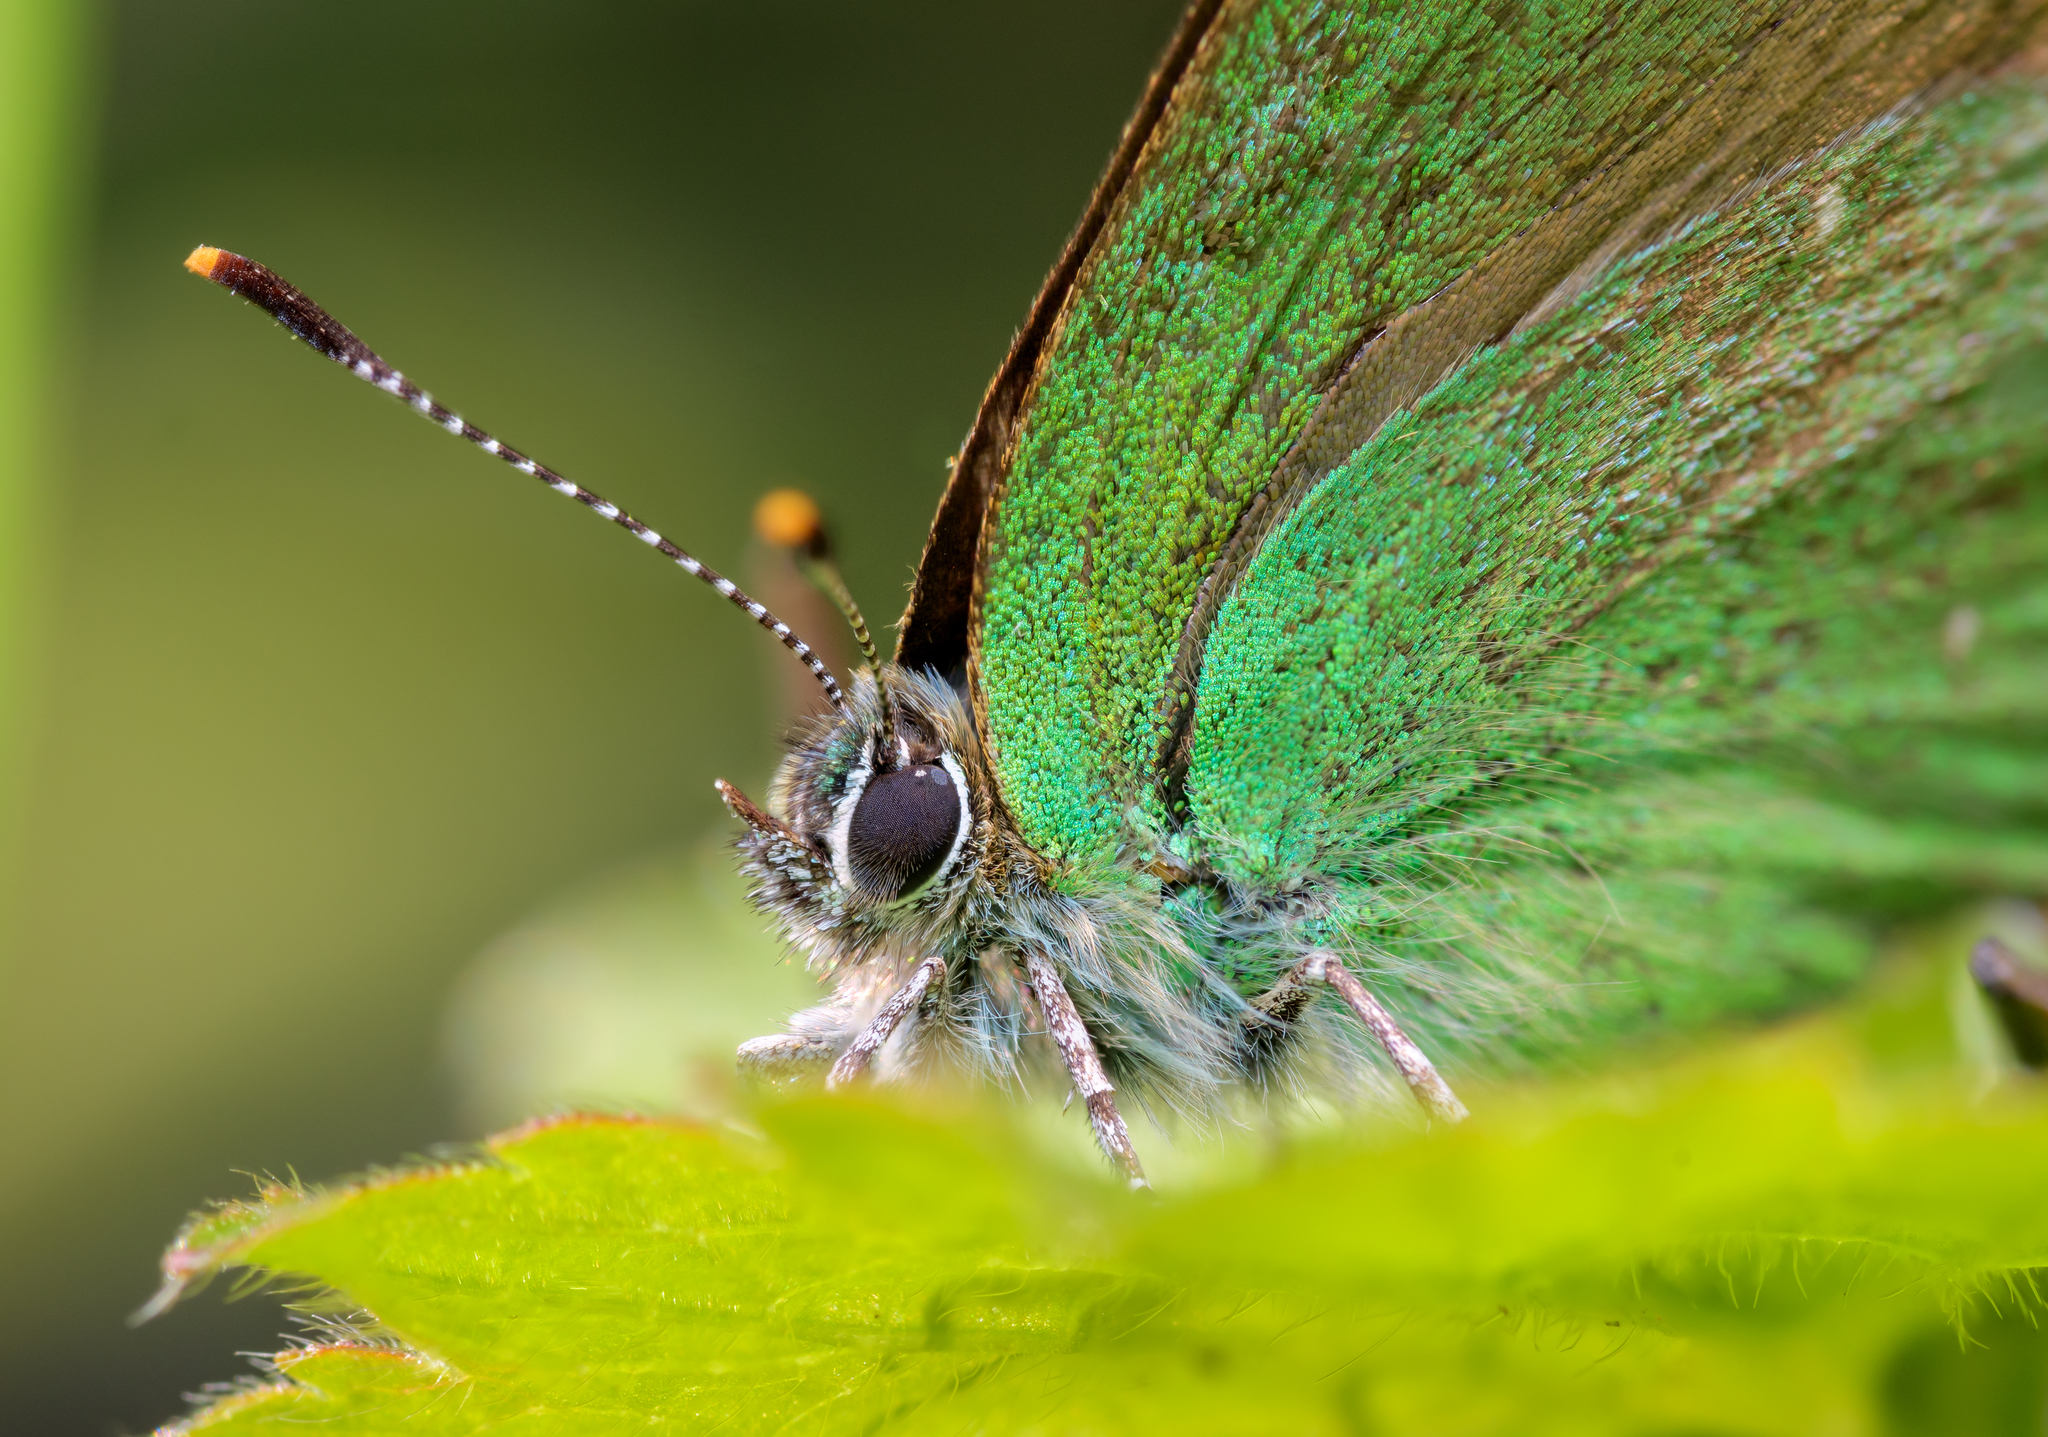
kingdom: Animalia
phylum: Arthropoda
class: Insecta
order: Lepidoptera
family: Lycaenidae
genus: Callophrys
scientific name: Callophrys rubi
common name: Green hairstreak
